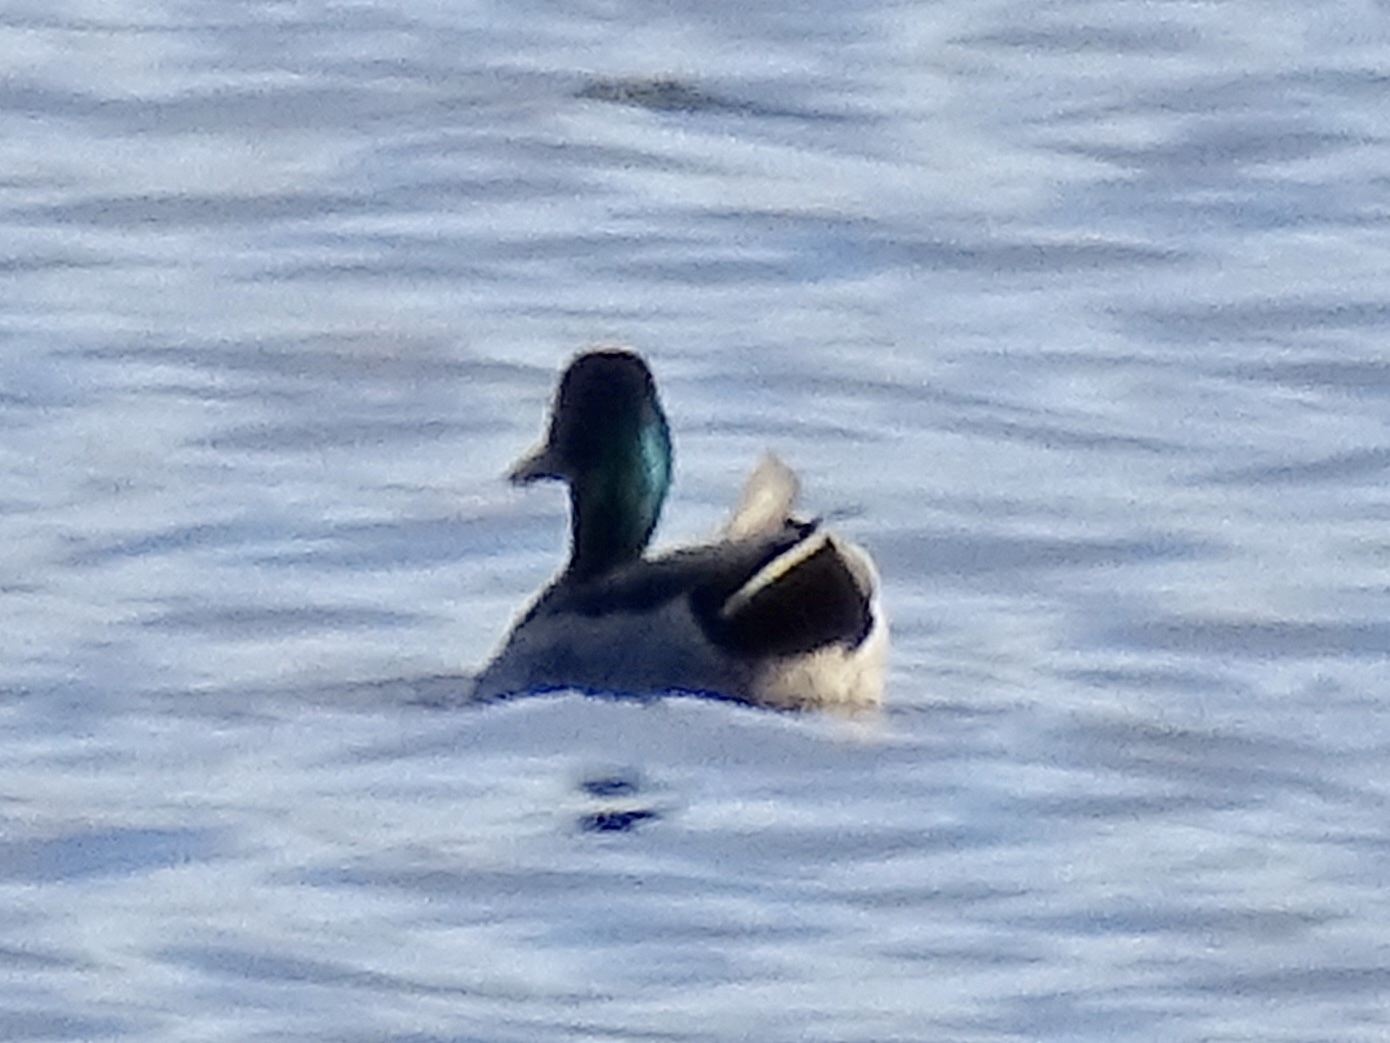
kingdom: Animalia
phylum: Chordata
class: Aves
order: Anseriformes
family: Anatidae
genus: Anas
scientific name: Anas platyrhynchos
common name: Mallard
